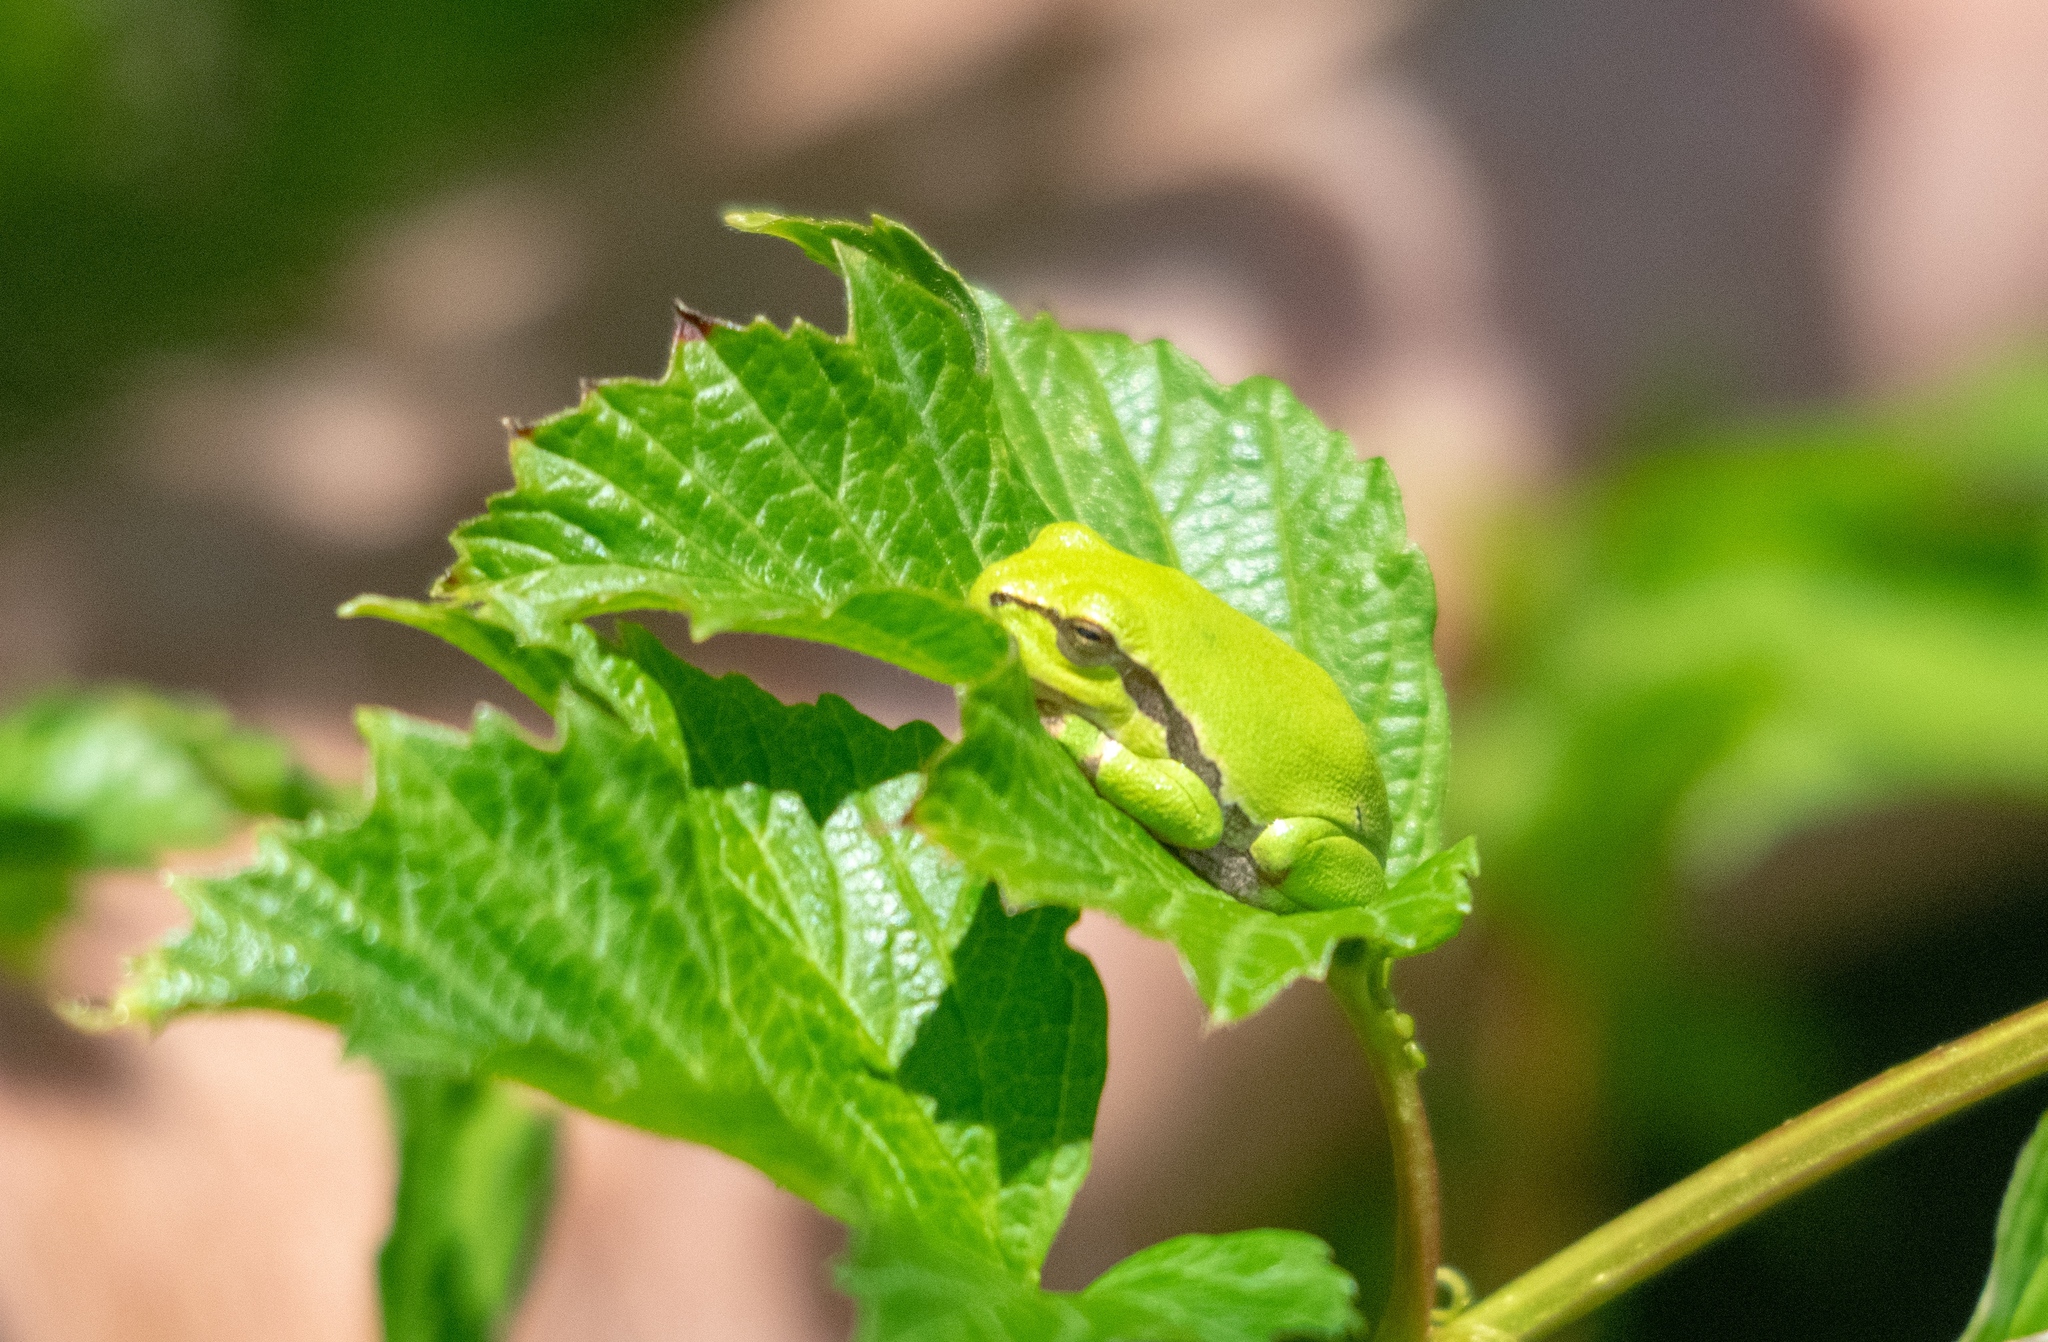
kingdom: Animalia
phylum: Chordata
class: Amphibia
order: Anura
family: Hylidae
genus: Hyla
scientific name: Hyla arborea
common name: Common tree frog
